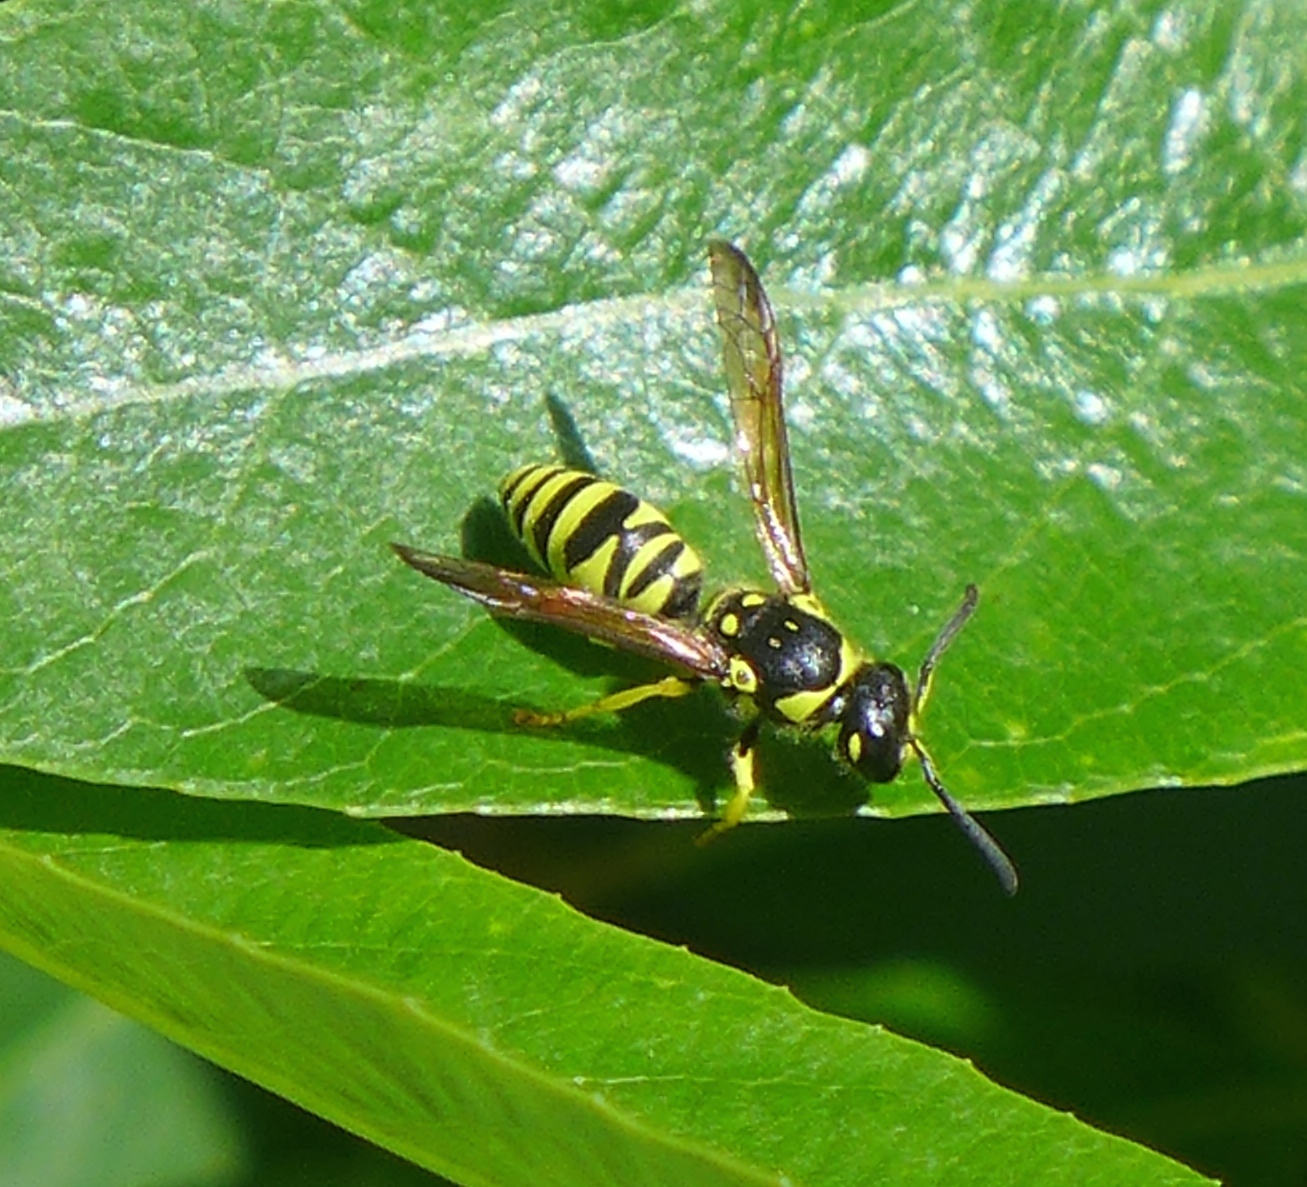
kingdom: Animalia
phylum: Arthropoda
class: Insecta
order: Hymenoptera
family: Vespidae
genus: Ancistrocerus
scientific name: Ancistrocerus adiabatus
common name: Bramble mason wasp
